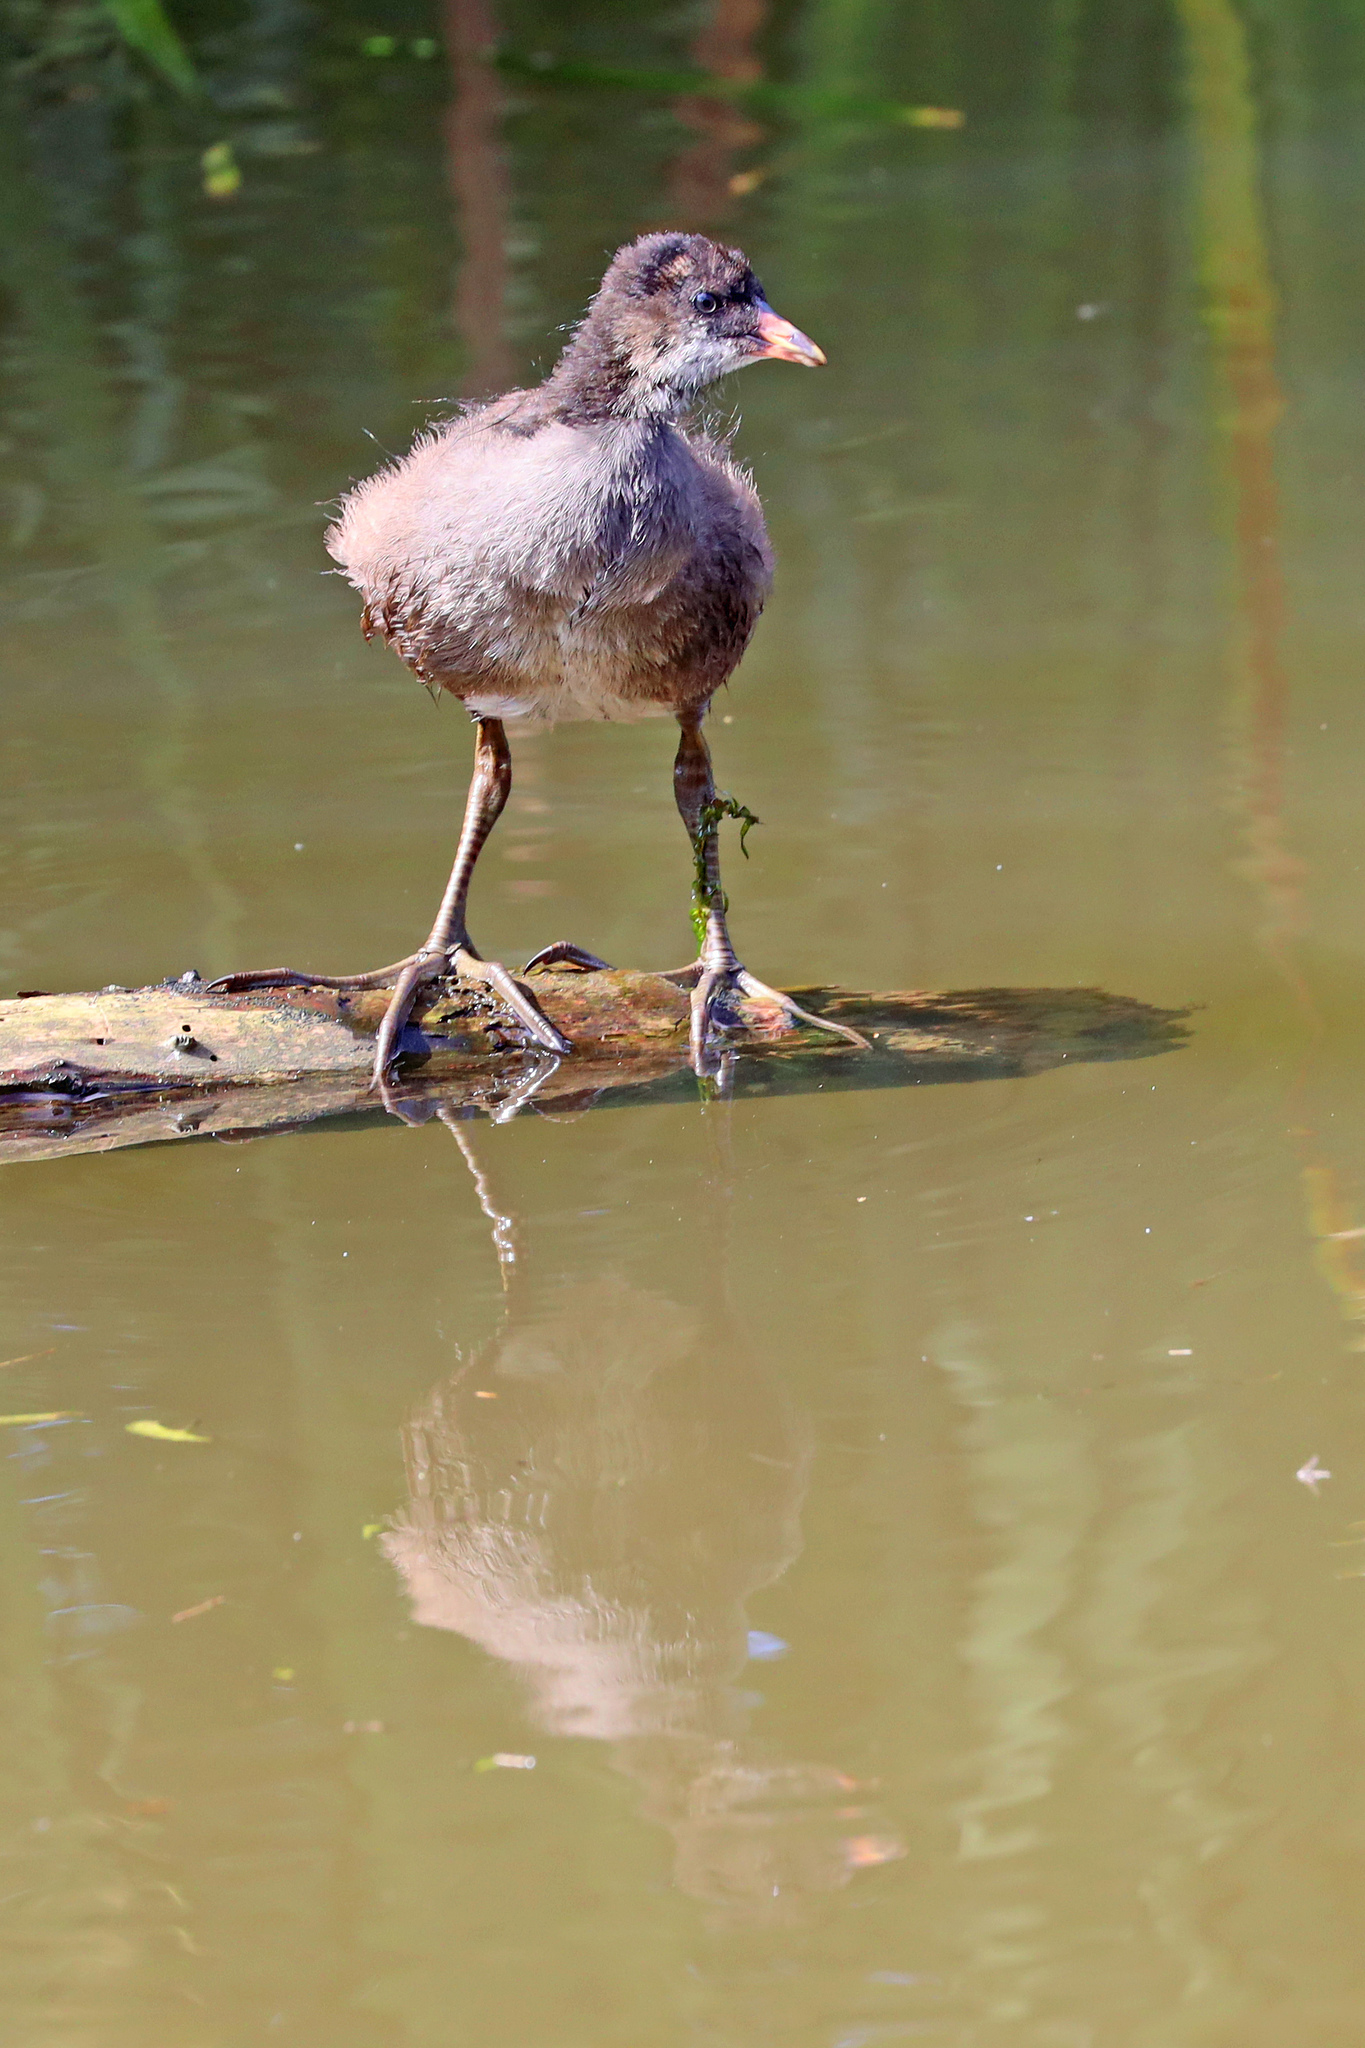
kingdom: Animalia
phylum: Chordata
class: Aves
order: Gruiformes
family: Rallidae
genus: Gallinula
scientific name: Gallinula chloropus
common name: Common moorhen
